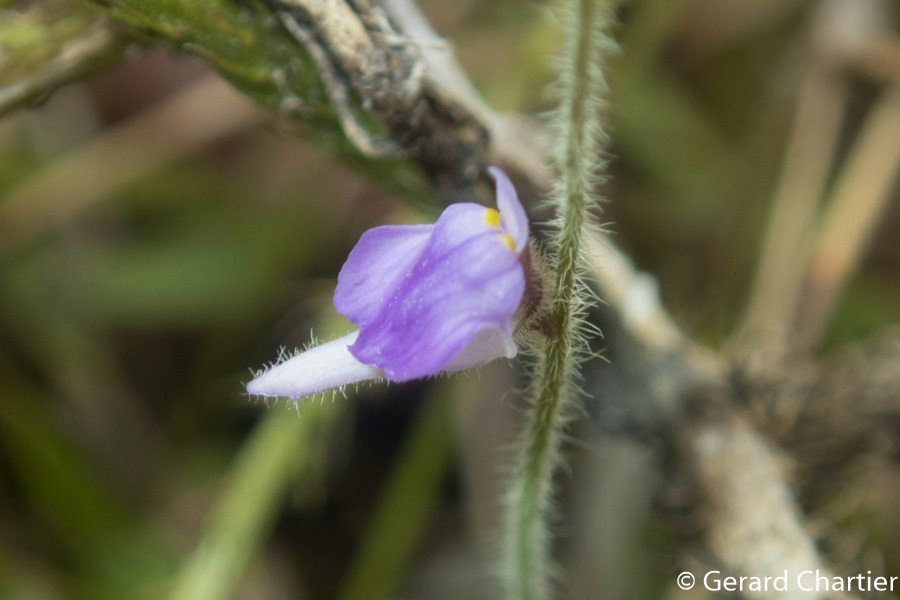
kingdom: Plantae
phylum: Tracheophyta
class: Magnoliopsida
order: Lamiales
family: Lentibulariaceae
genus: Utricularia
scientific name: Utricularia hirta
